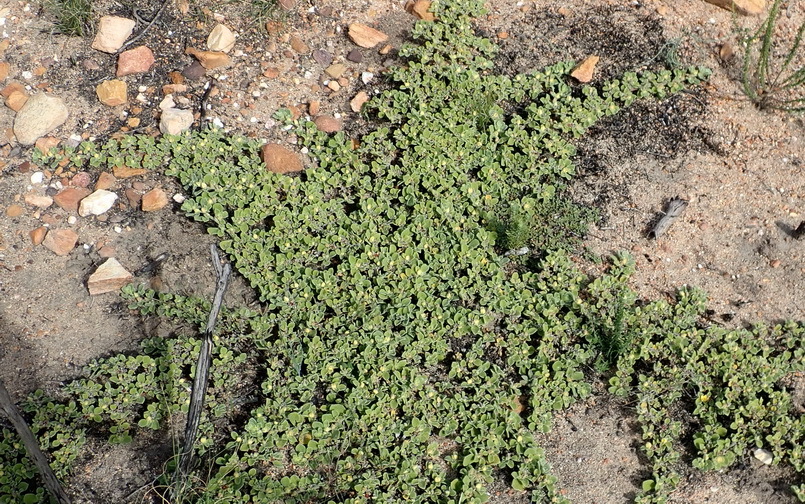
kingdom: Plantae
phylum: Tracheophyta
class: Magnoliopsida
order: Caryophyllales
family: Aizoaceae
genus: Aizoon
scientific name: Aizoon glinoides
